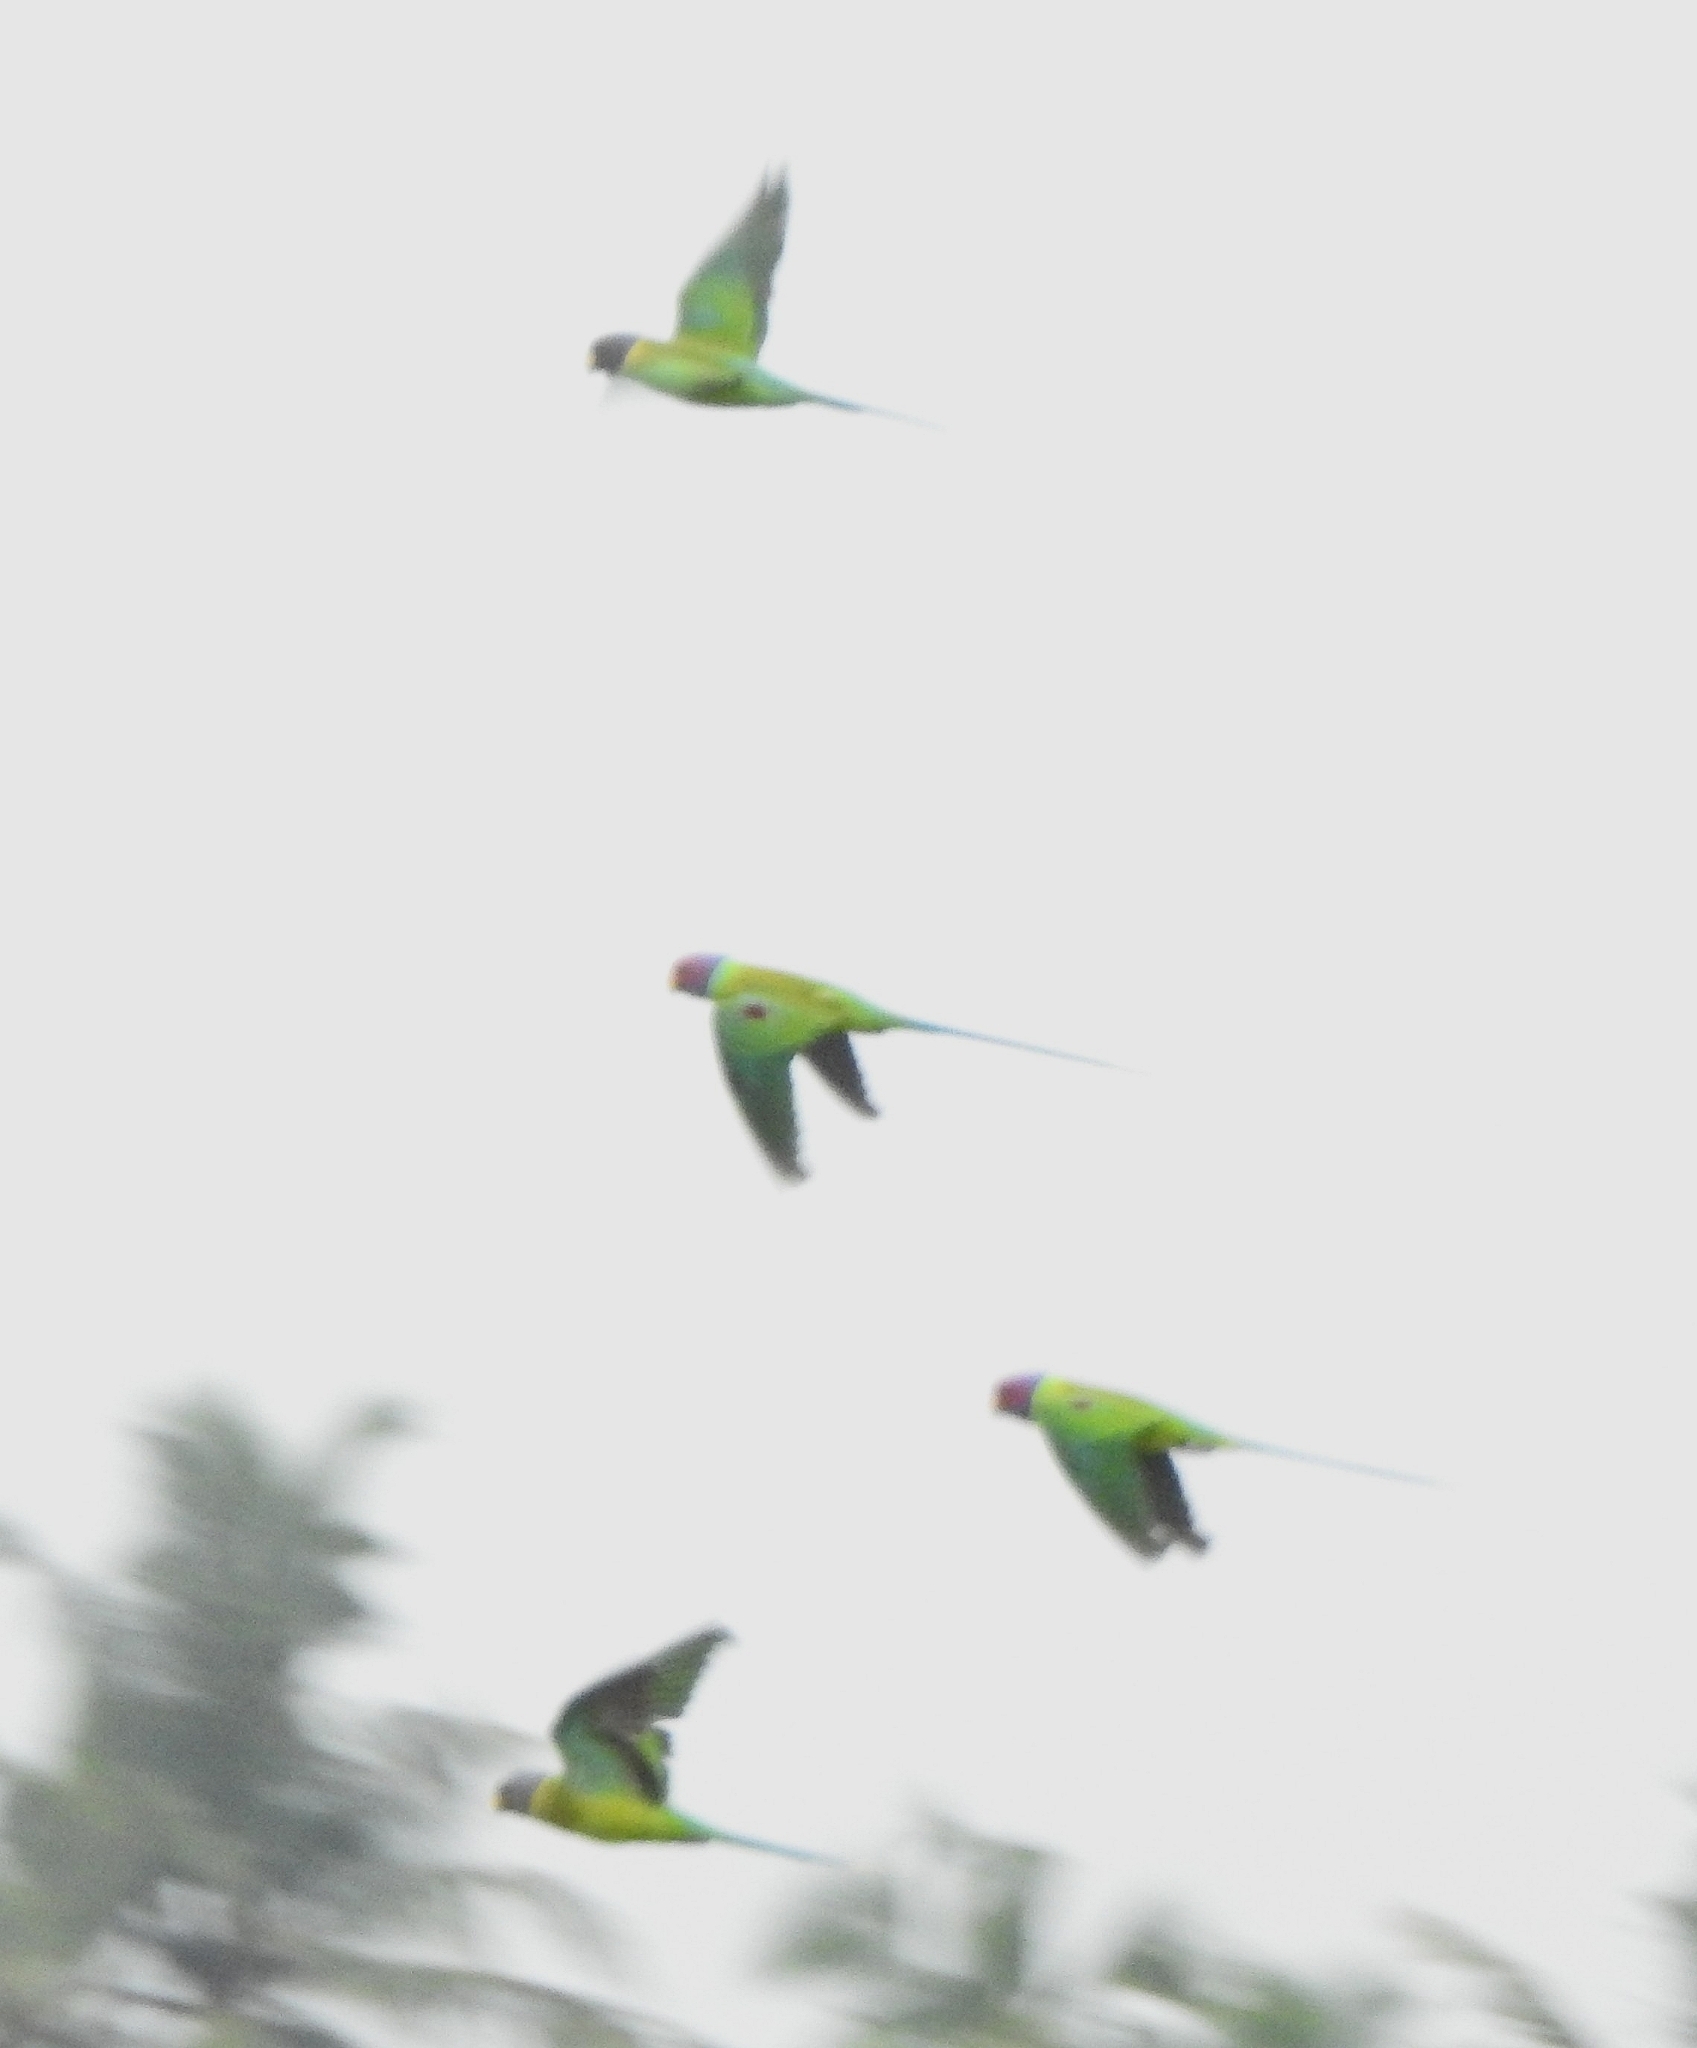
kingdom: Animalia
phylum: Chordata
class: Aves
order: Psittaciformes
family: Psittacidae
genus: Psittacula
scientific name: Psittacula cyanocephala
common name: Plum-headed parakeet
